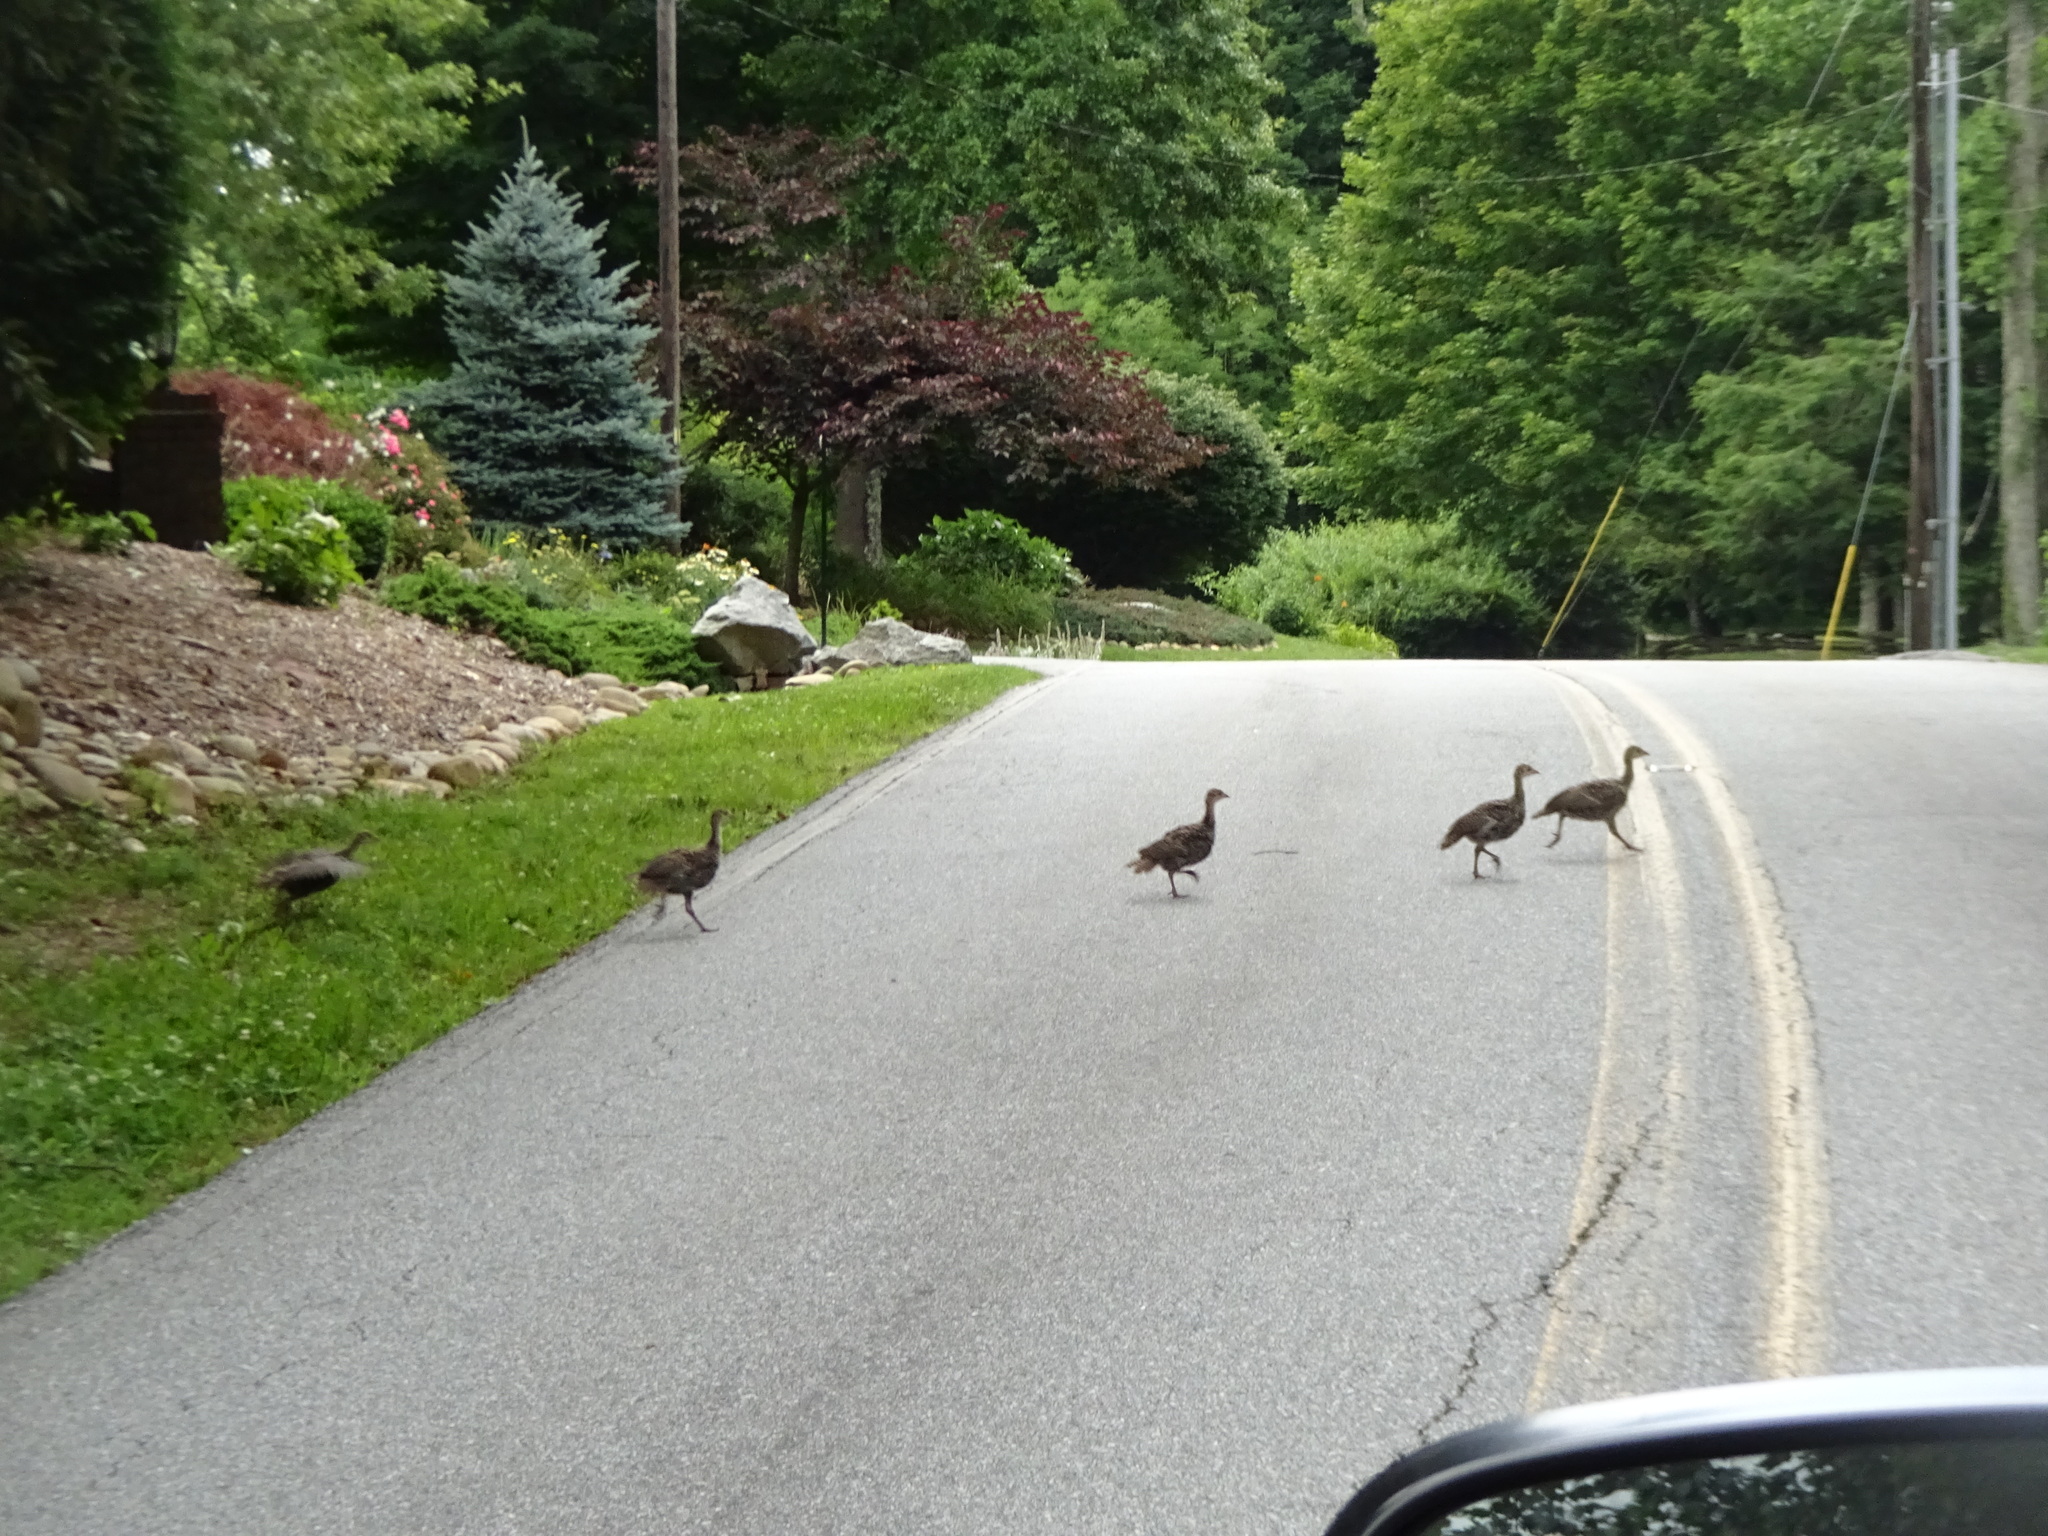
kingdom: Animalia
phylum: Chordata
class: Aves
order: Galliformes
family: Phasianidae
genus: Meleagris
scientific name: Meleagris gallopavo
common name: Wild turkey
